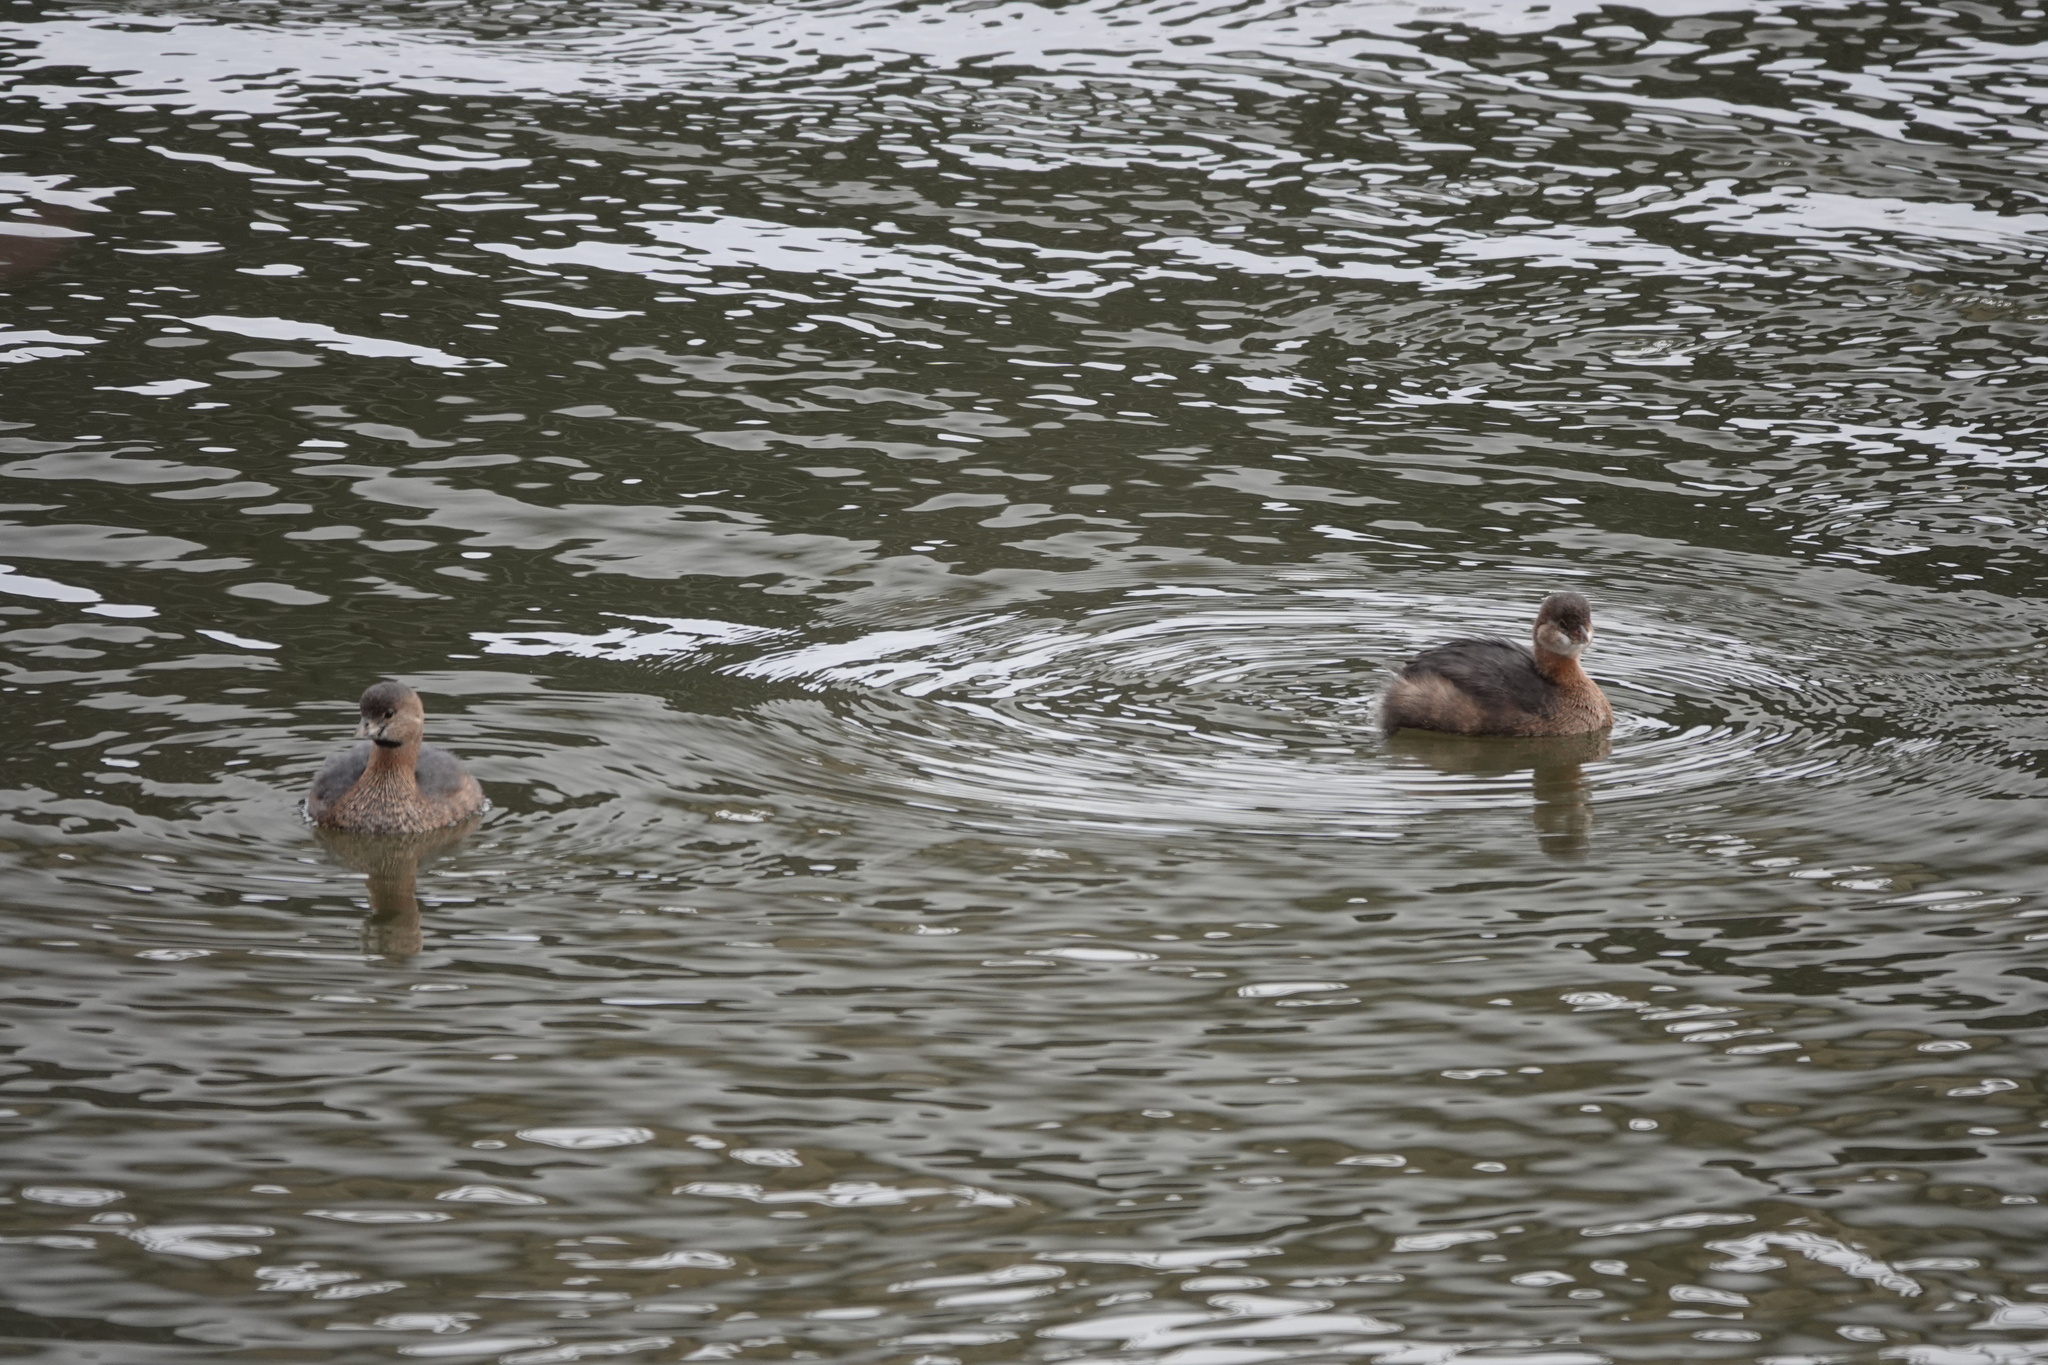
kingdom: Animalia
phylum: Chordata
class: Aves
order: Podicipediformes
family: Podicipedidae
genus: Podilymbus
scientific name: Podilymbus podiceps
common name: Pied-billed grebe
